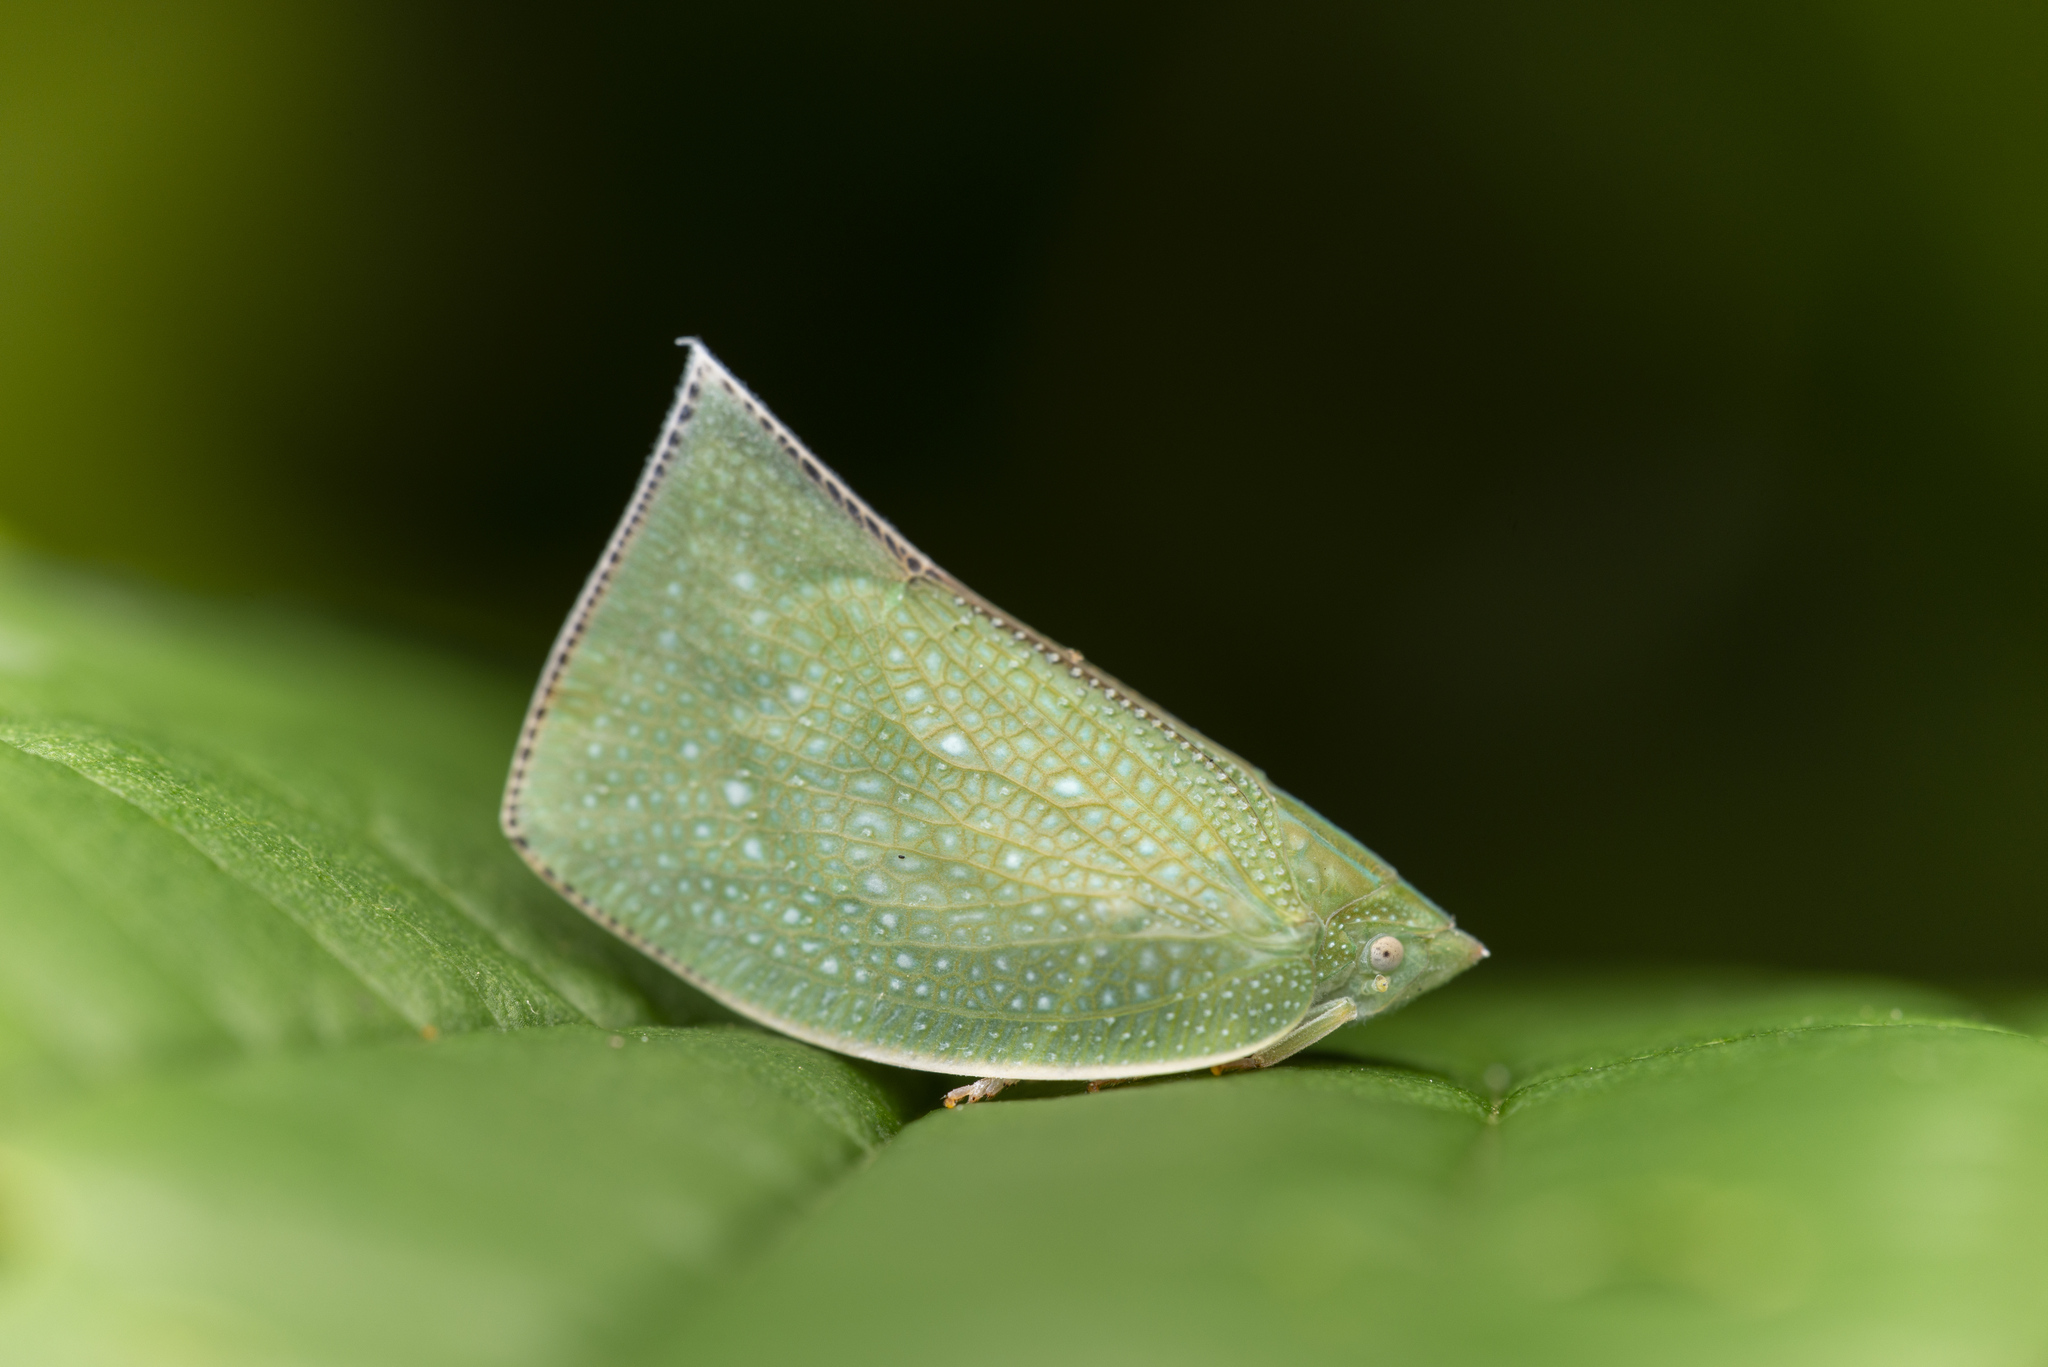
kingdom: Animalia
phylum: Arthropoda
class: Insecta
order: Hemiptera
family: Flatidae
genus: Cromna
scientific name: Cromna sinensis
